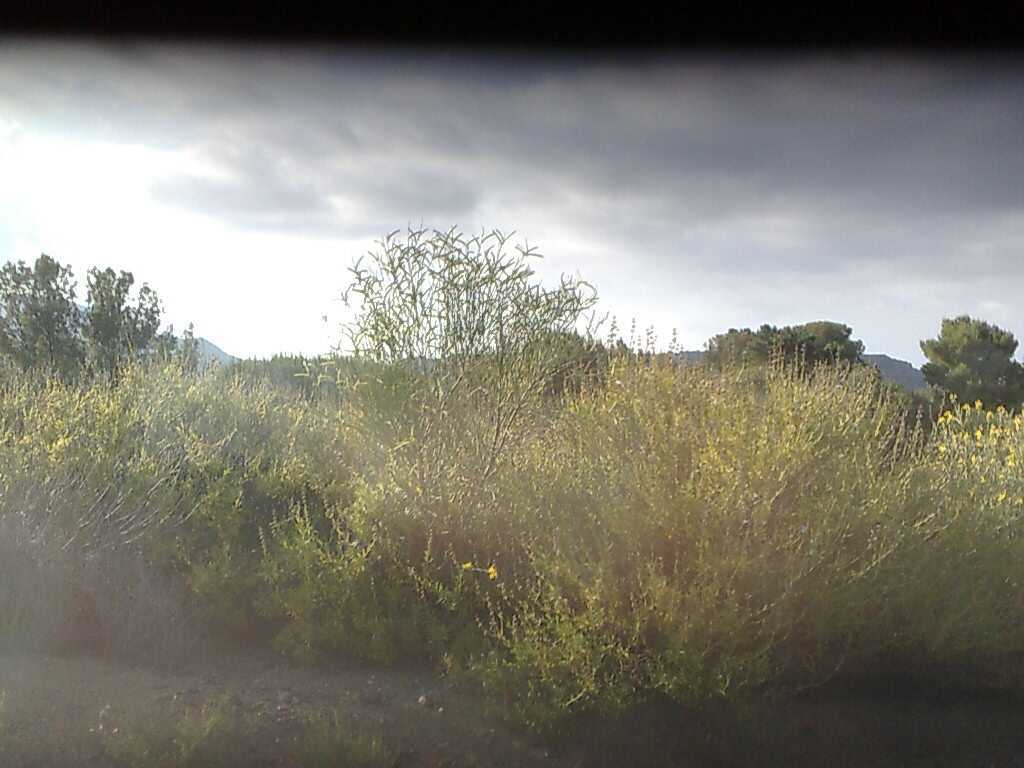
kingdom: Plantae
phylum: Tracheophyta
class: Magnoliopsida
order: Lamiales
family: Lamiaceae
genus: Salvia
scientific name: Salvia mellifera
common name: Black sage
